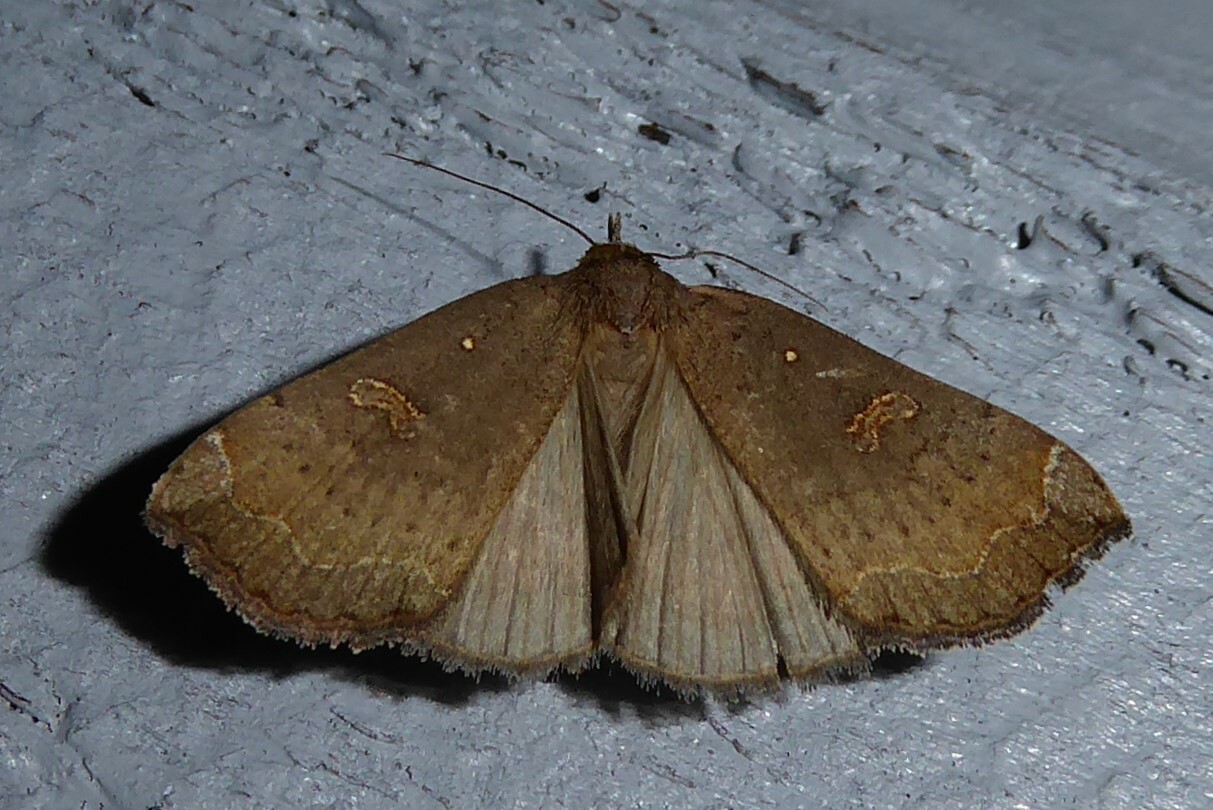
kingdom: Animalia
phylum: Arthropoda
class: Insecta
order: Lepidoptera
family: Erebidae
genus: Rhapsa
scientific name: Rhapsa scotosialis
